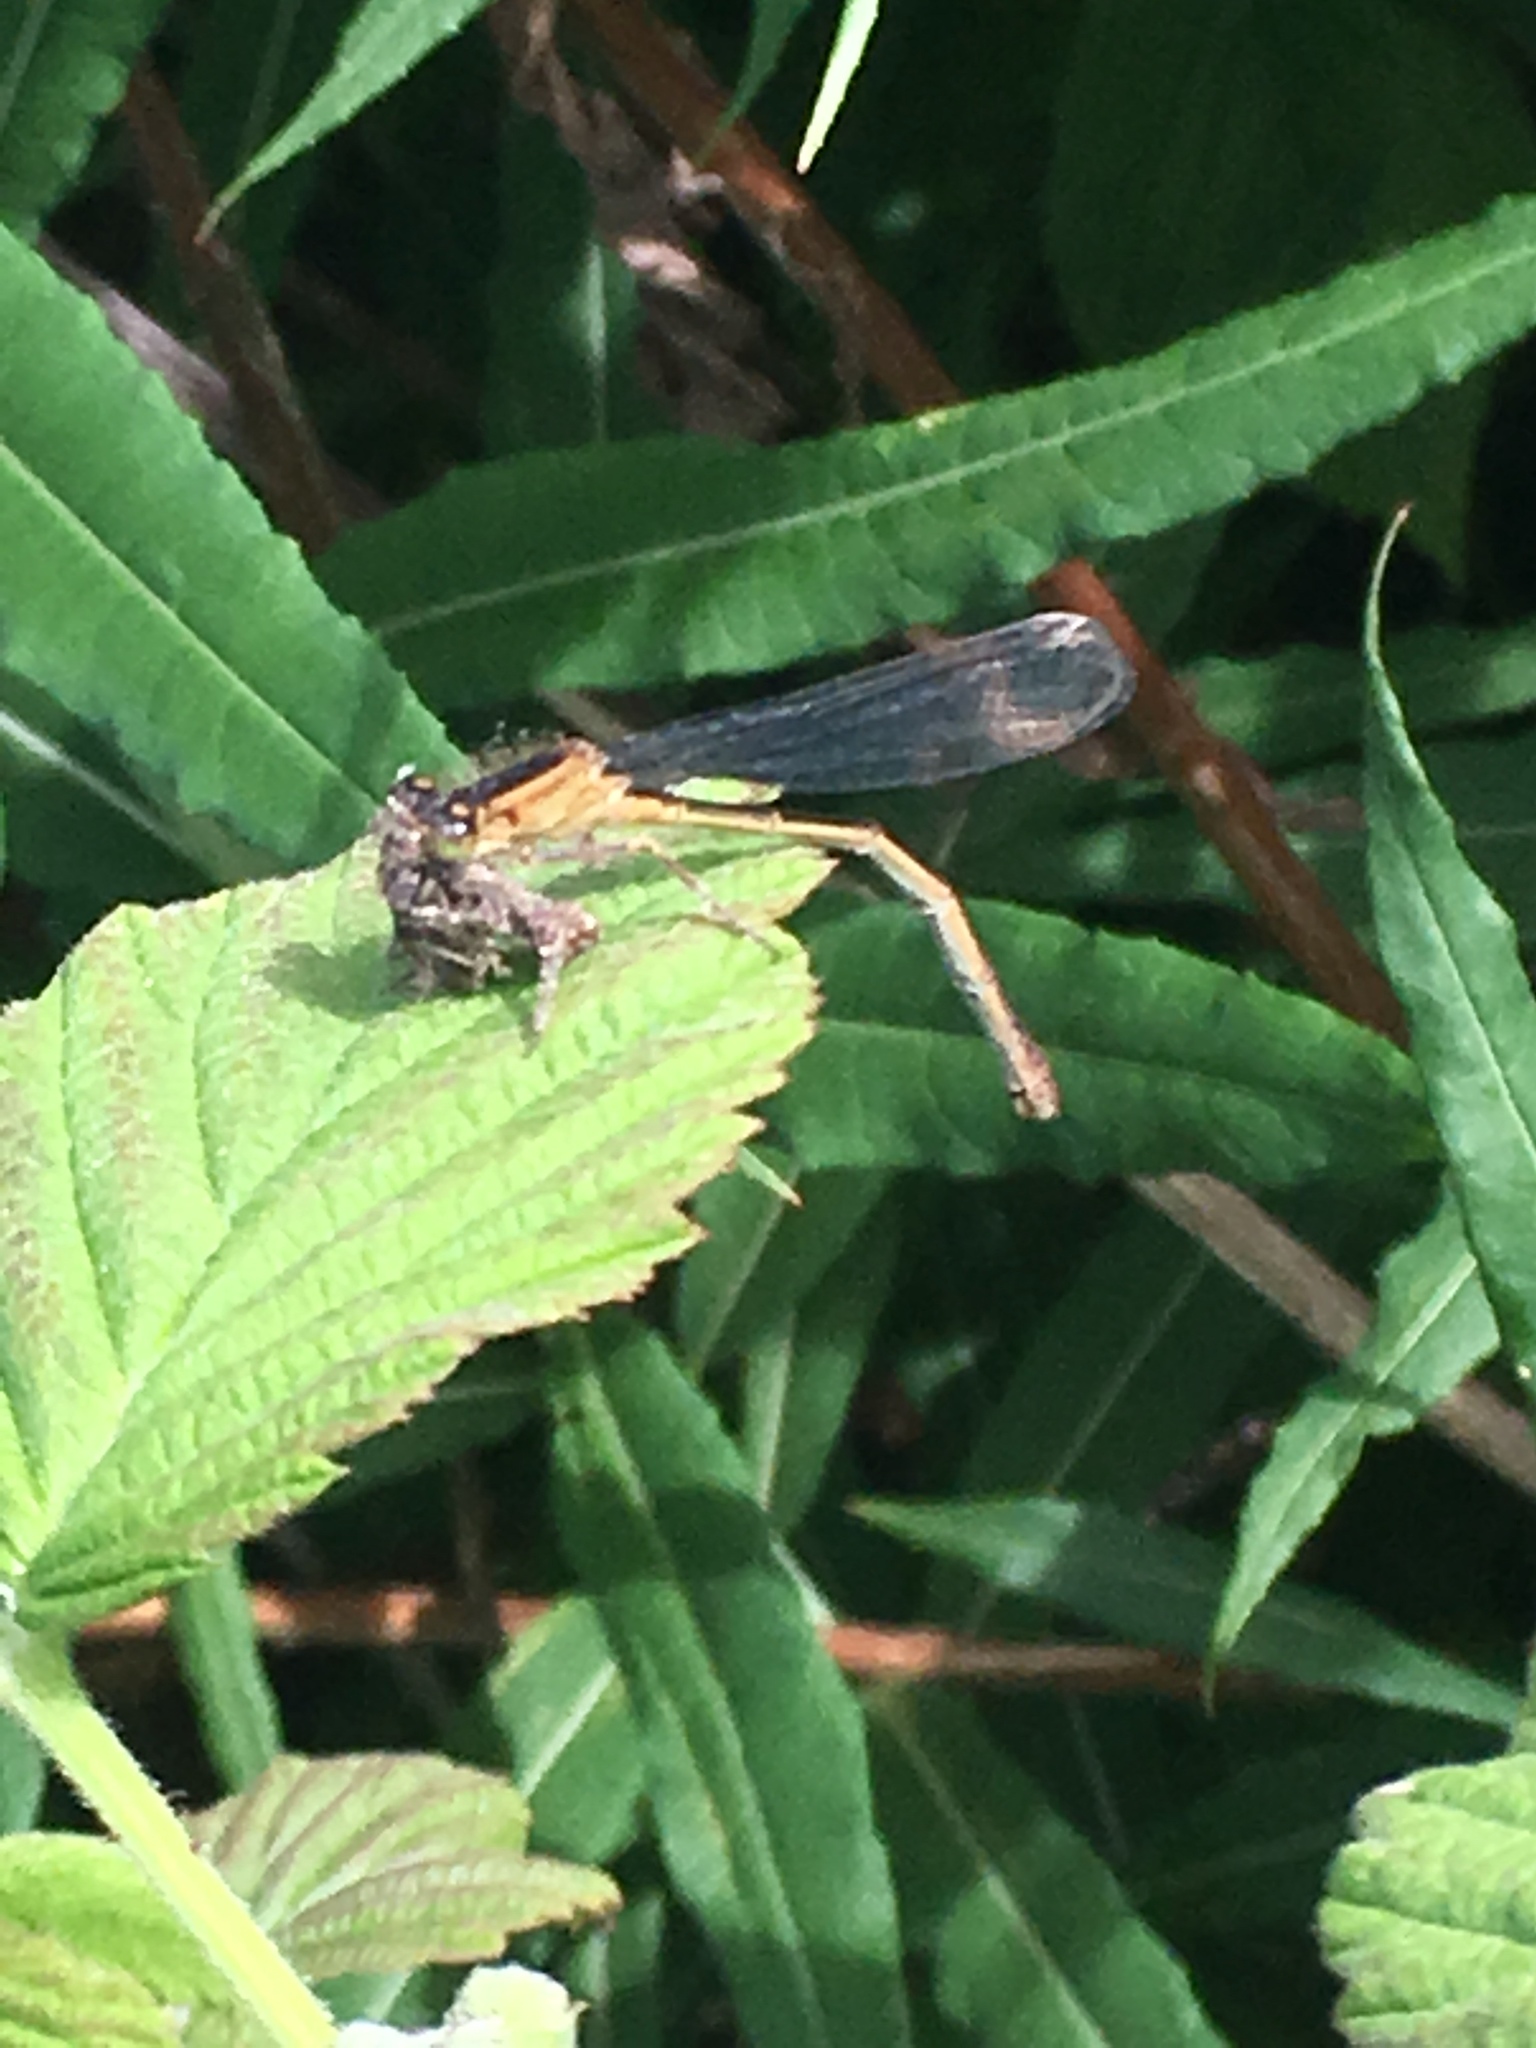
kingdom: Animalia
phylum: Arthropoda
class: Insecta
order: Odonata
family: Coenagrionidae
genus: Ischnura
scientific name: Ischnura elegans
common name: Blue-tailed damselfly
